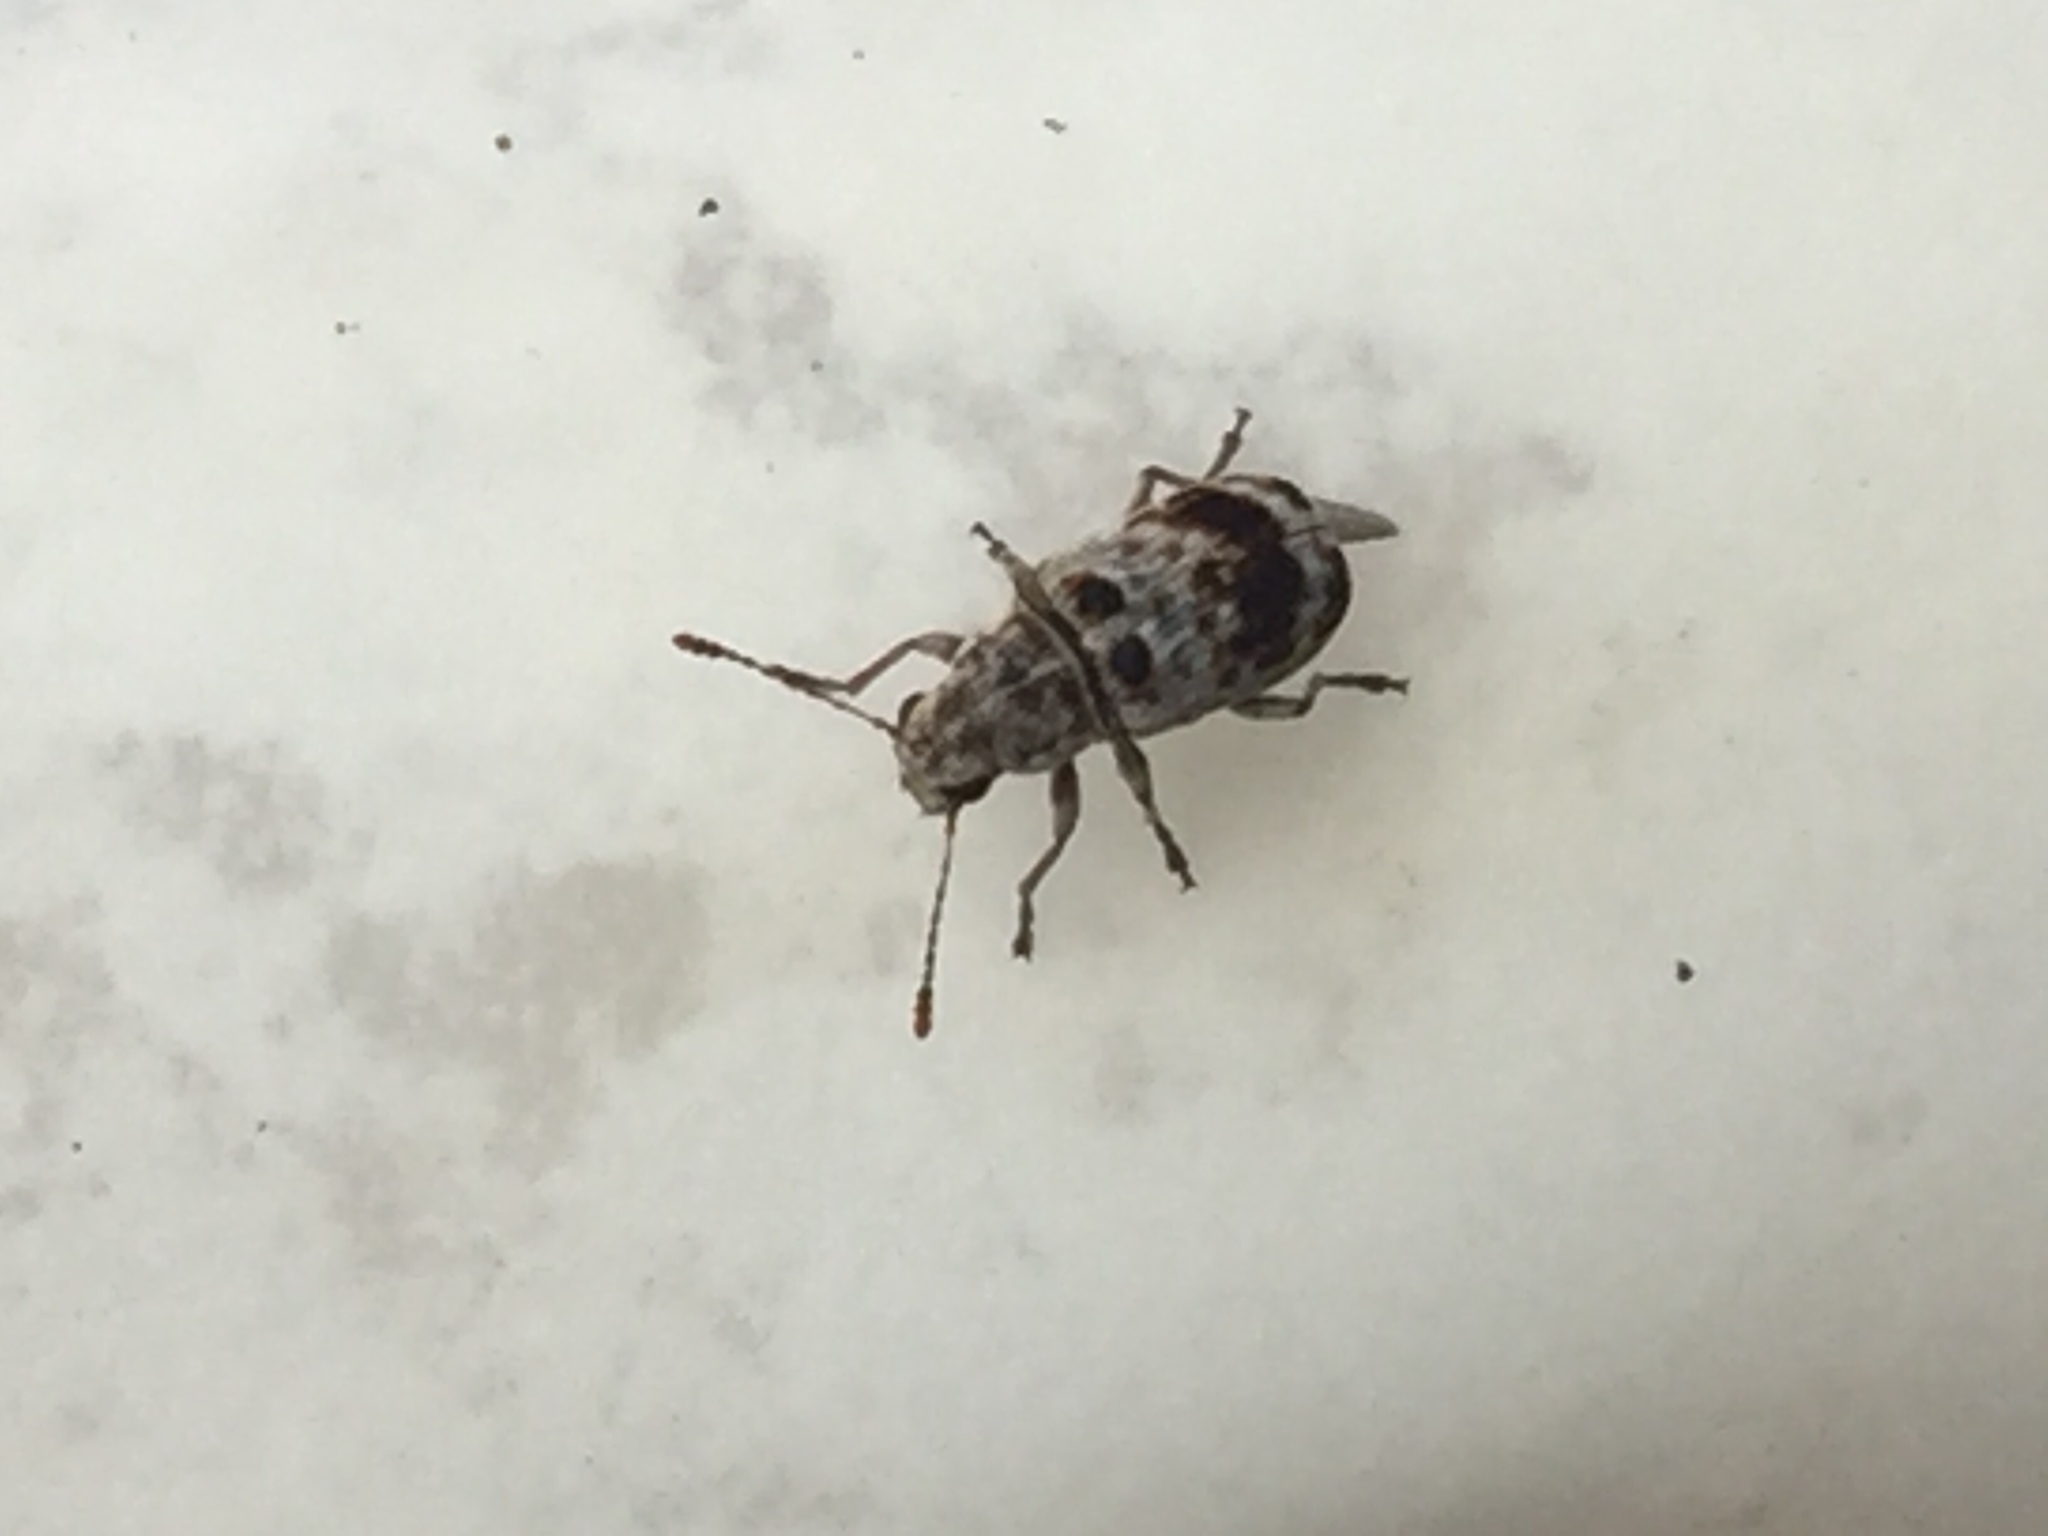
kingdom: Animalia
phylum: Arthropoda
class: Insecta
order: Coleoptera
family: Anthribidae
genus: Etnalis
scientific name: Etnalis spinicollis
